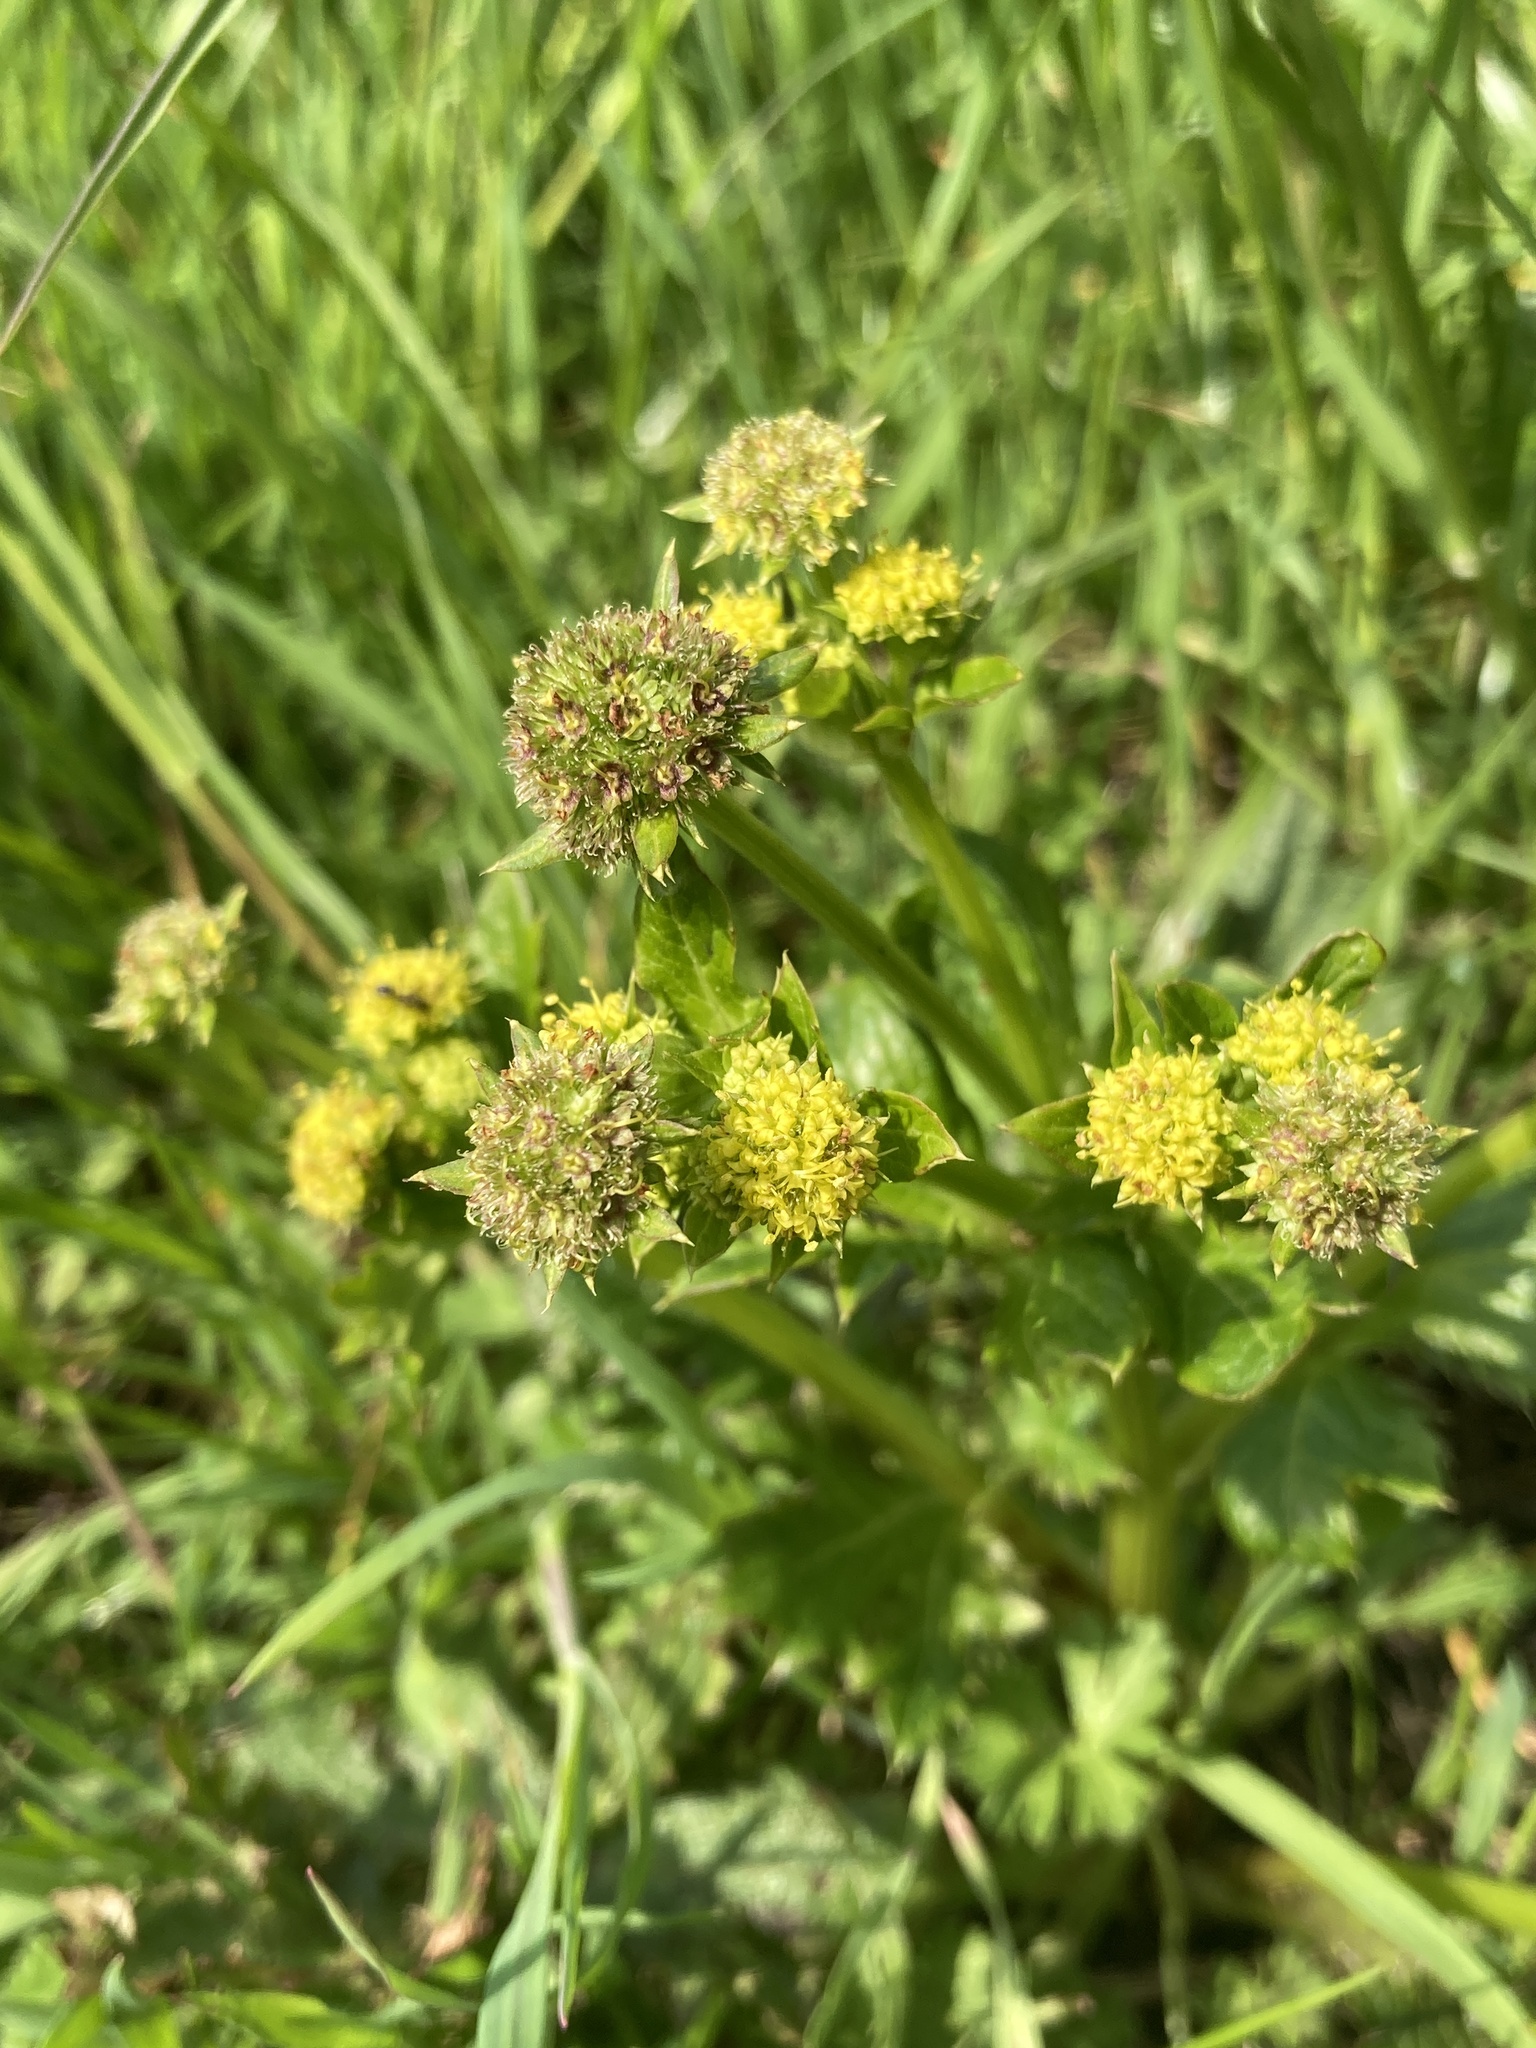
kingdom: Plantae
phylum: Tracheophyta
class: Magnoliopsida
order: Apiales
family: Apiaceae
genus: Sanicula
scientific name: Sanicula crassicaulis
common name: Western snakeroot
